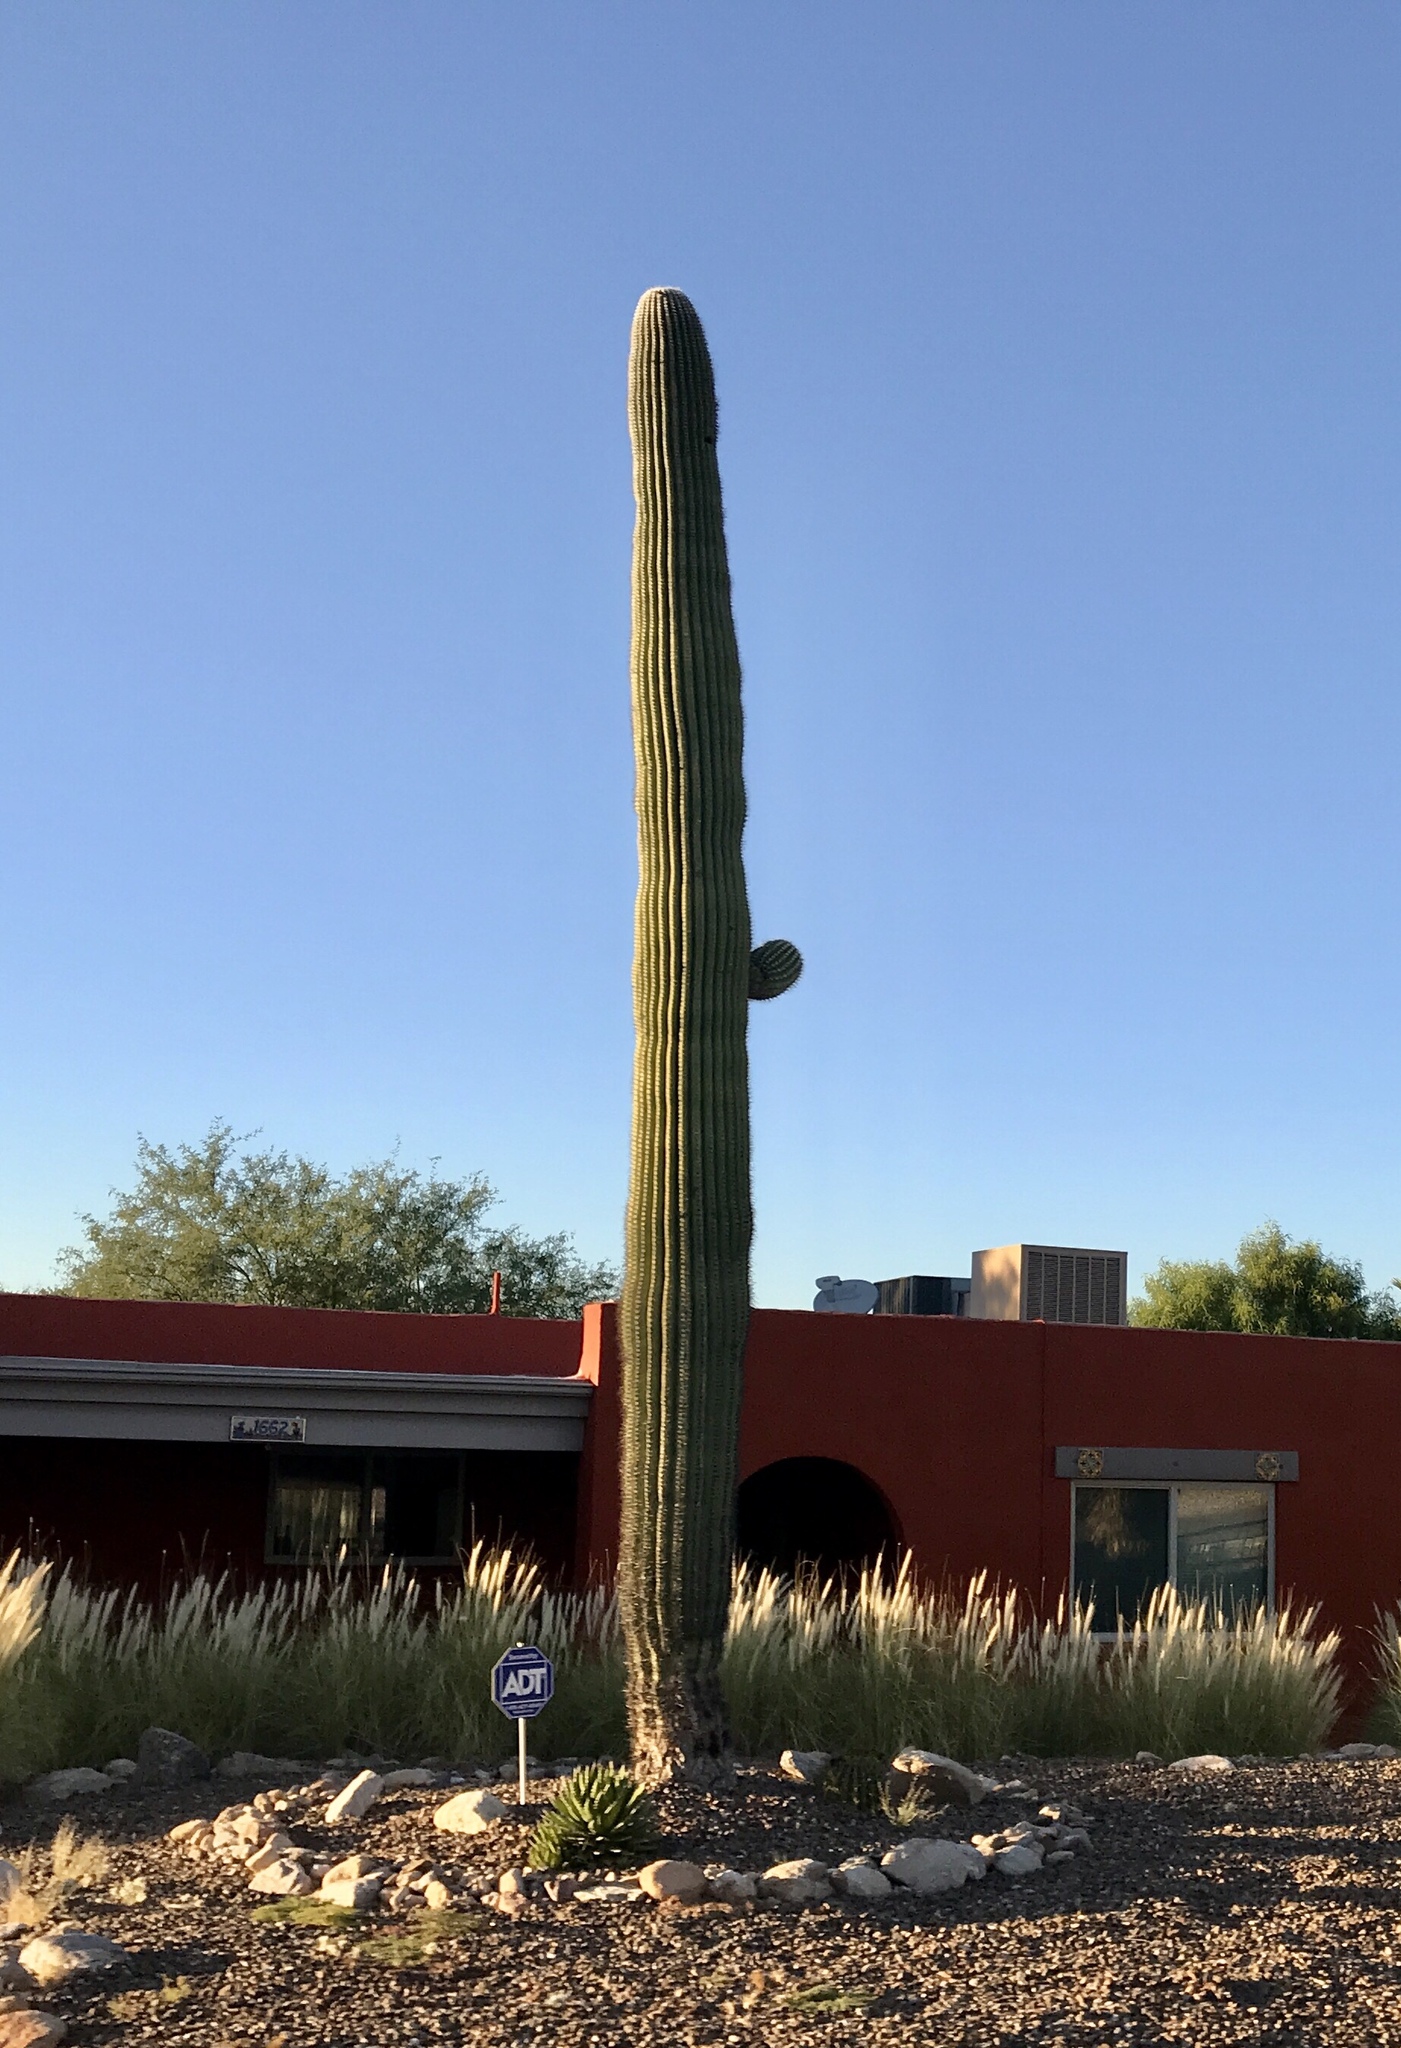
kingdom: Plantae
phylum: Tracheophyta
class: Magnoliopsida
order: Caryophyllales
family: Cactaceae
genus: Carnegiea
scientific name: Carnegiea gigantea
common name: Saguaro
